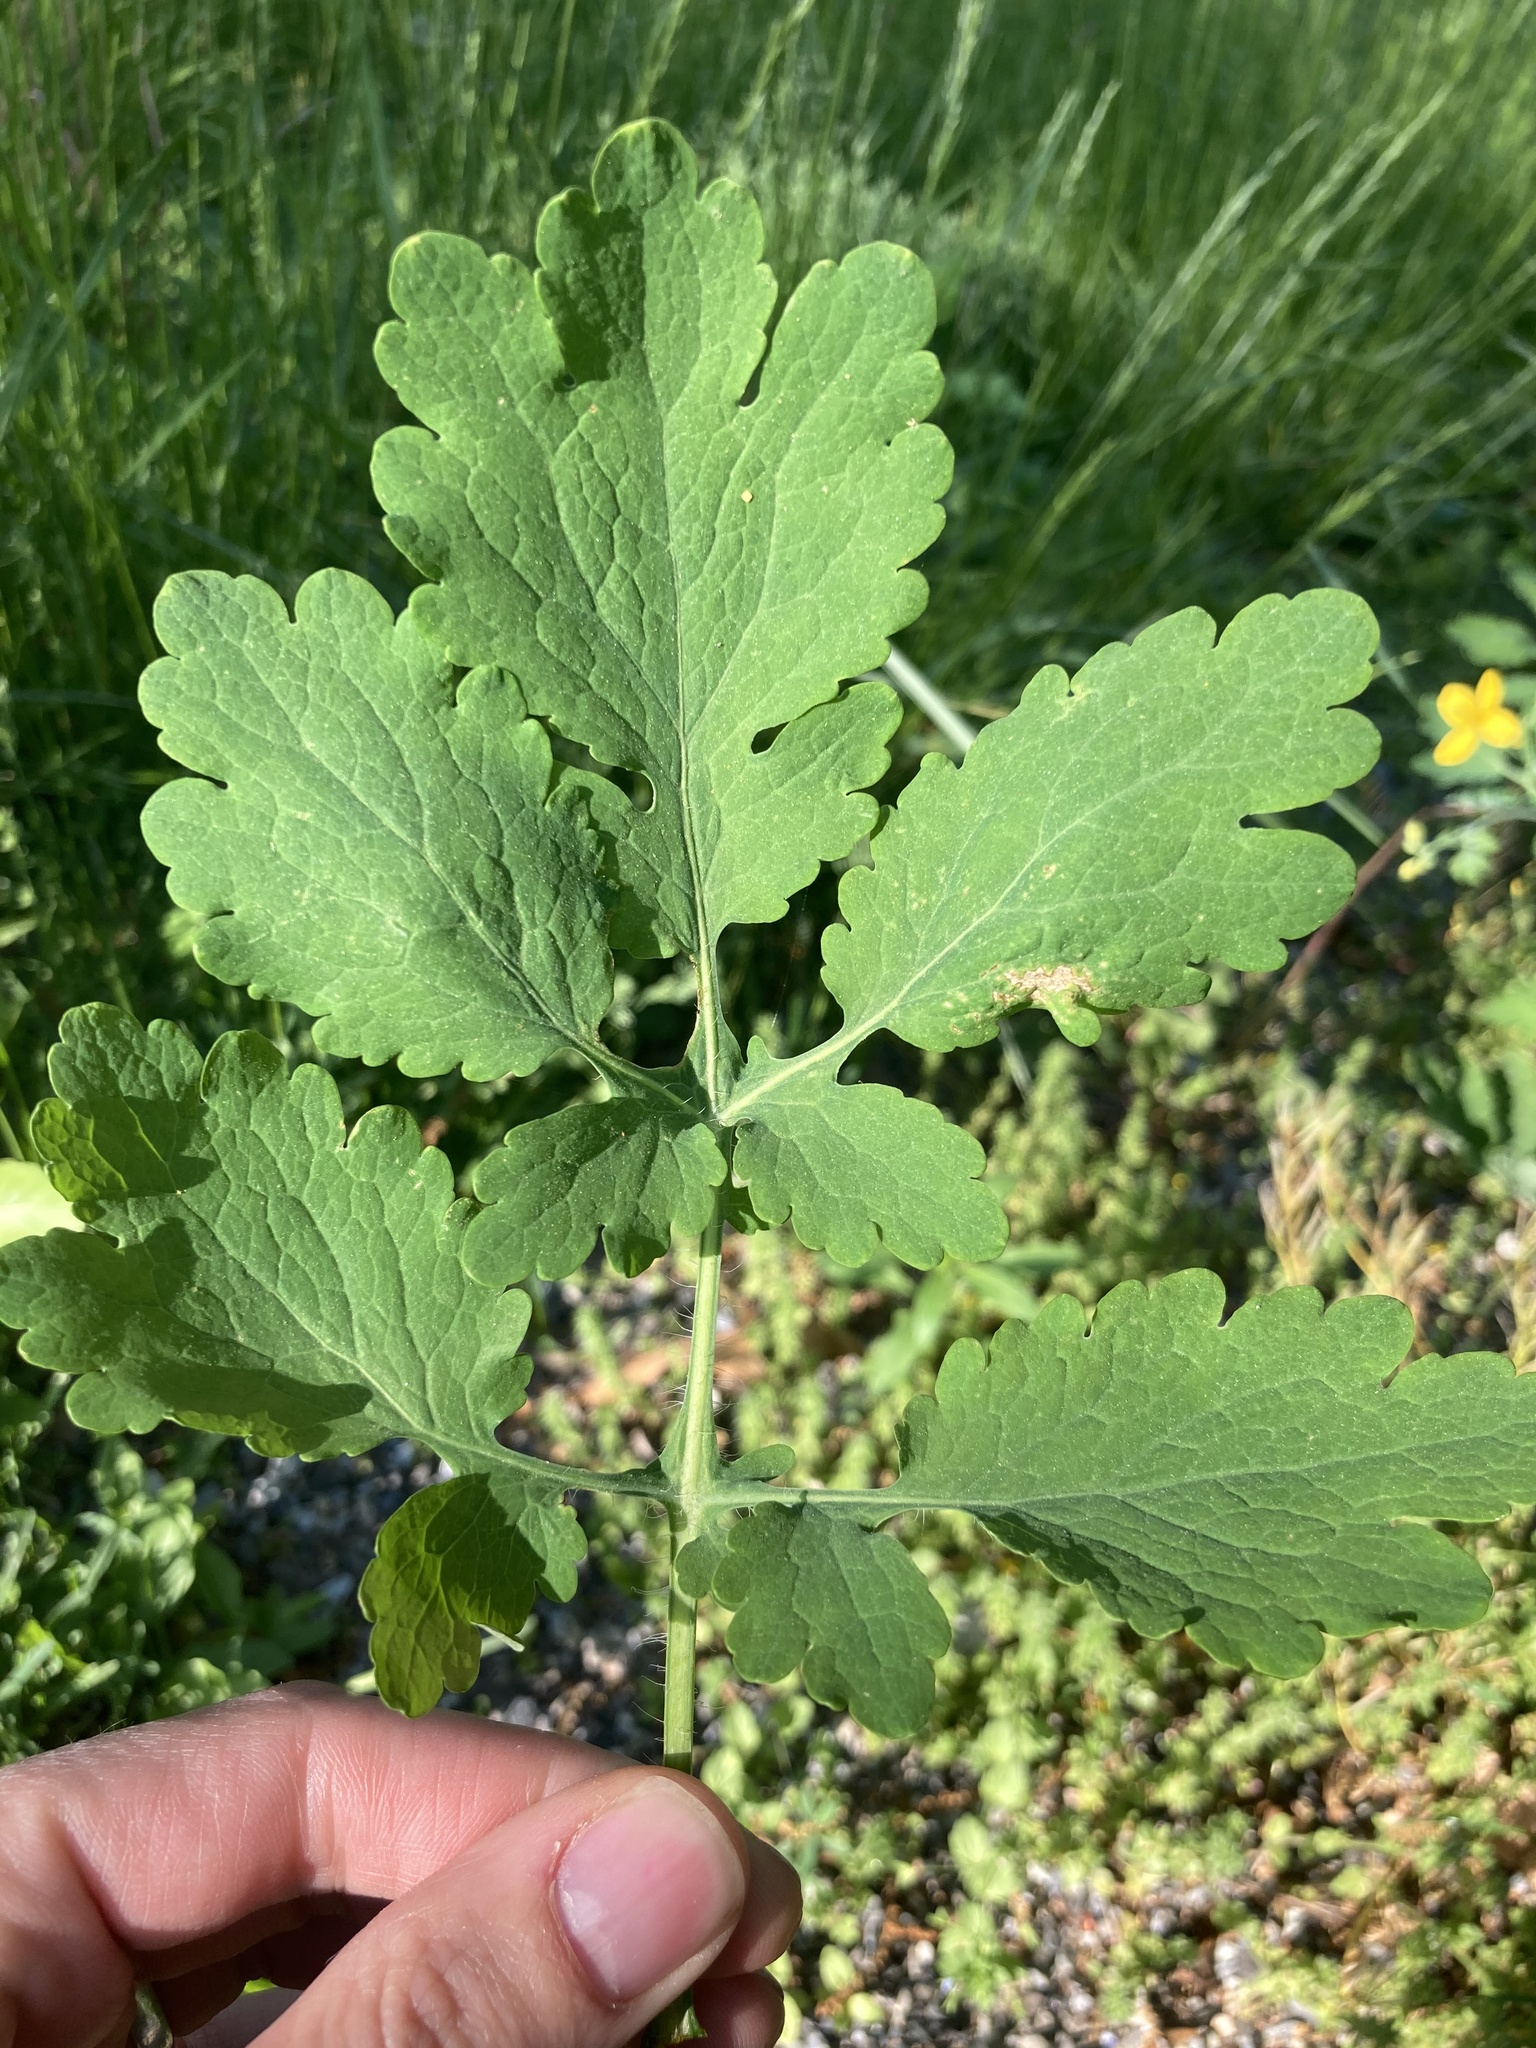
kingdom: Plantae
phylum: Tracheophyta
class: Magnoliopsida
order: Ranunculales
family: Papaveraceae
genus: Chelidonium
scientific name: Chelidonium majus
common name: Greater celandine
